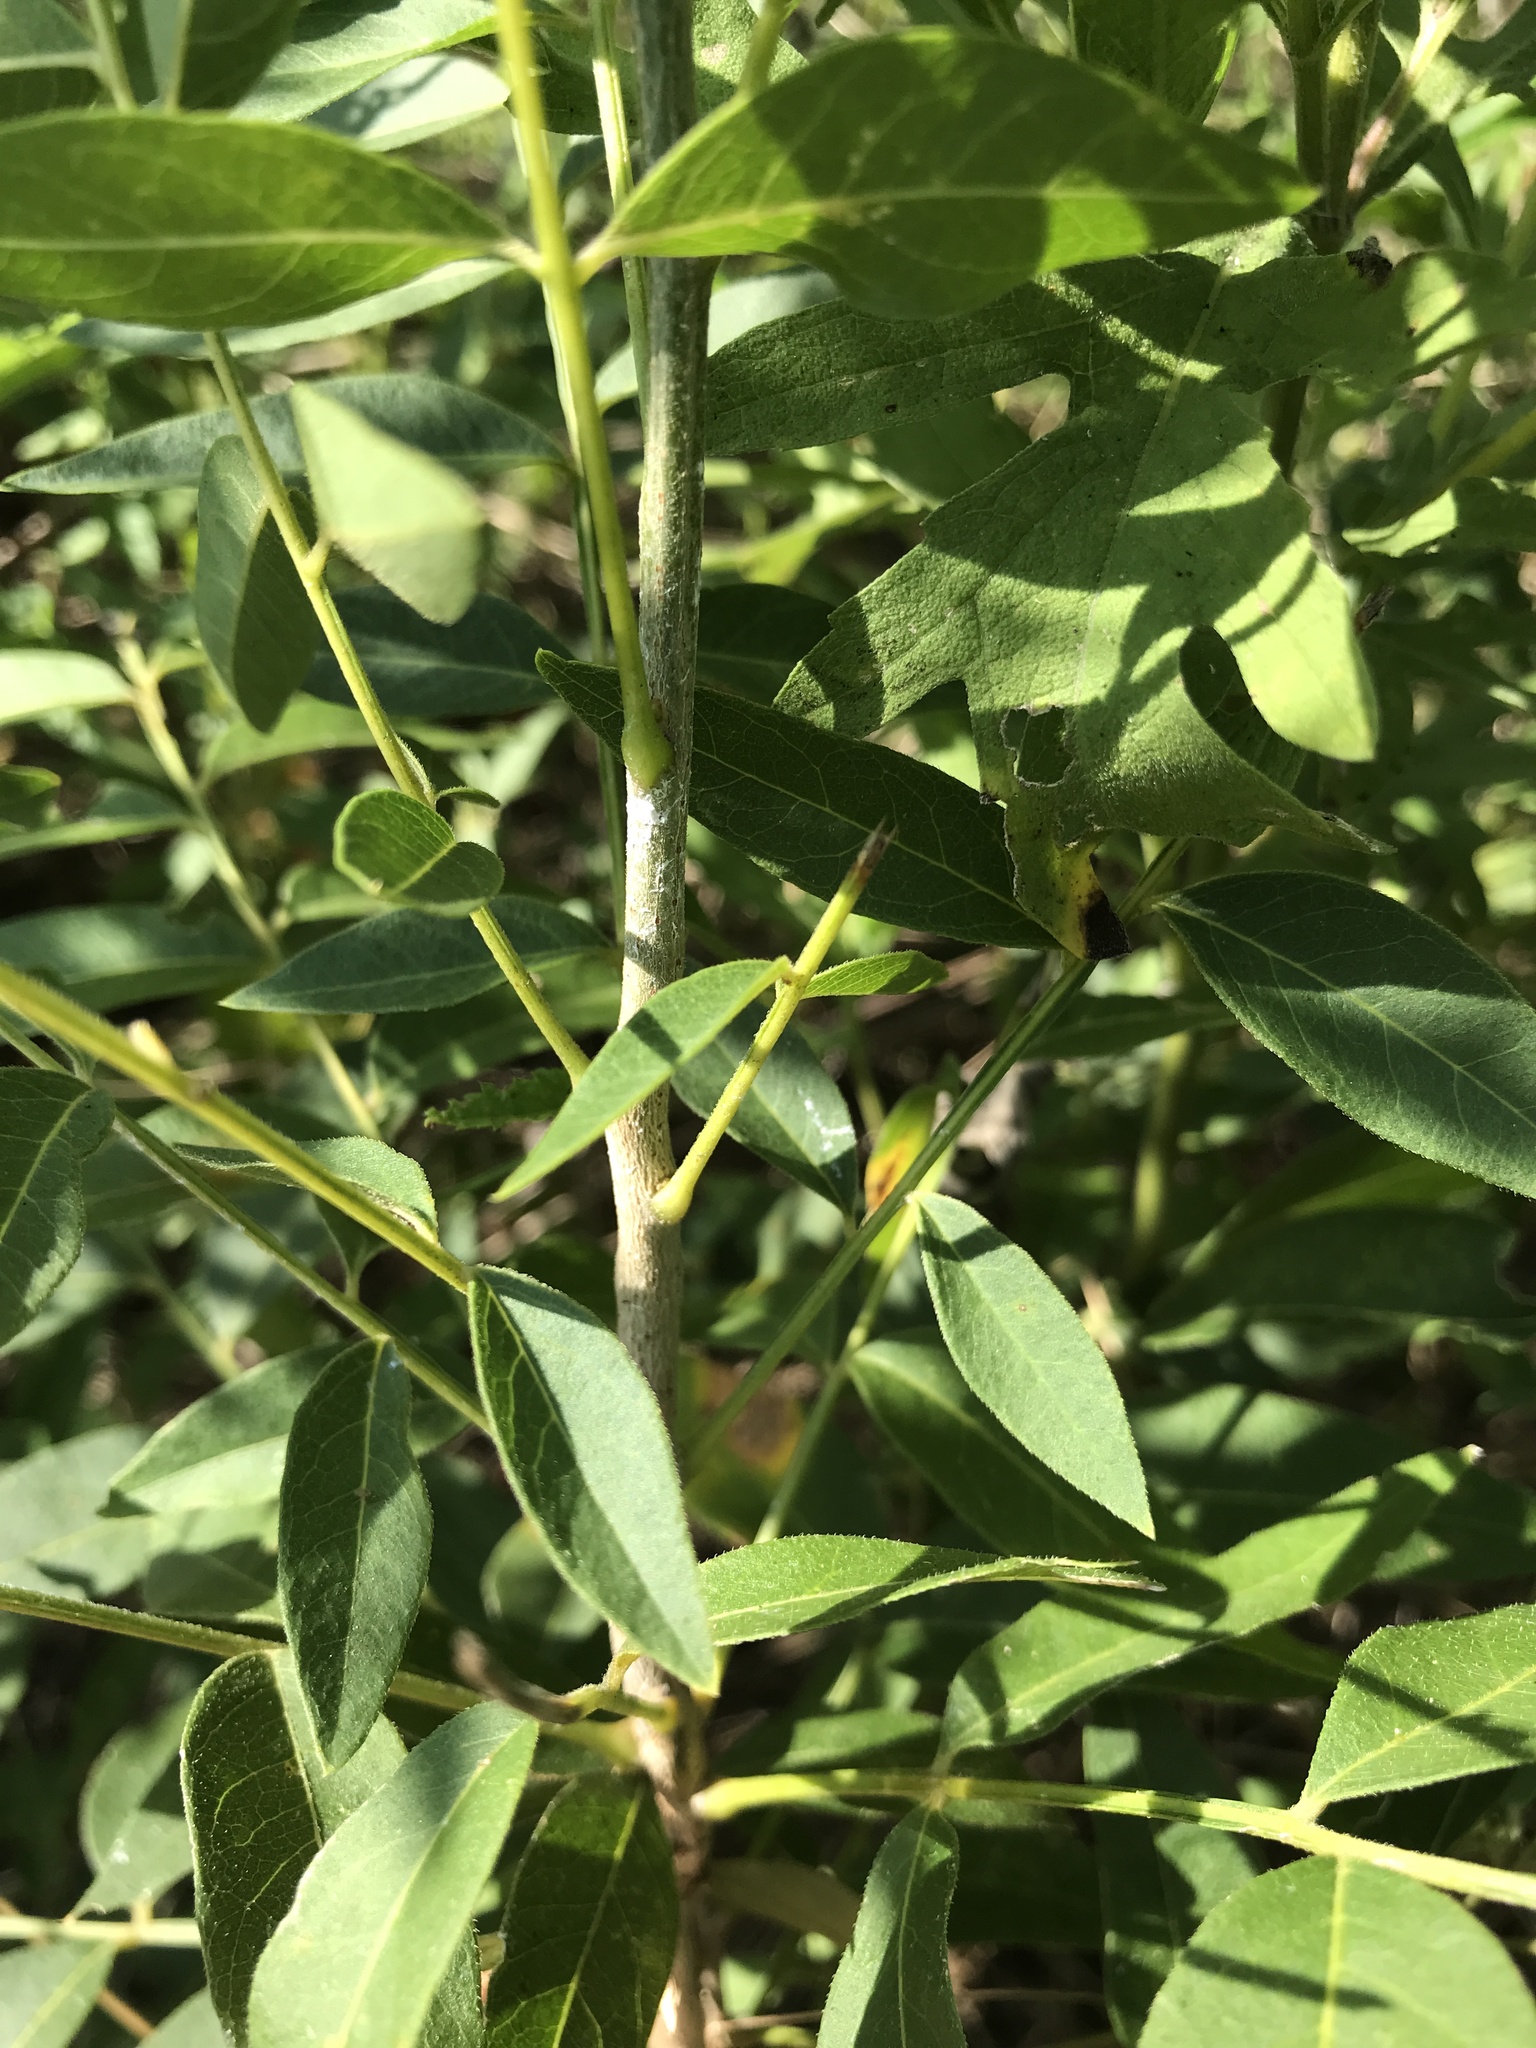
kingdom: Plantae
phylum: Tracheophyta
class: Magnoliopsida
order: Sapindales
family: Sapindaceae
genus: Sapindus
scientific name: Sapindus drummondii
